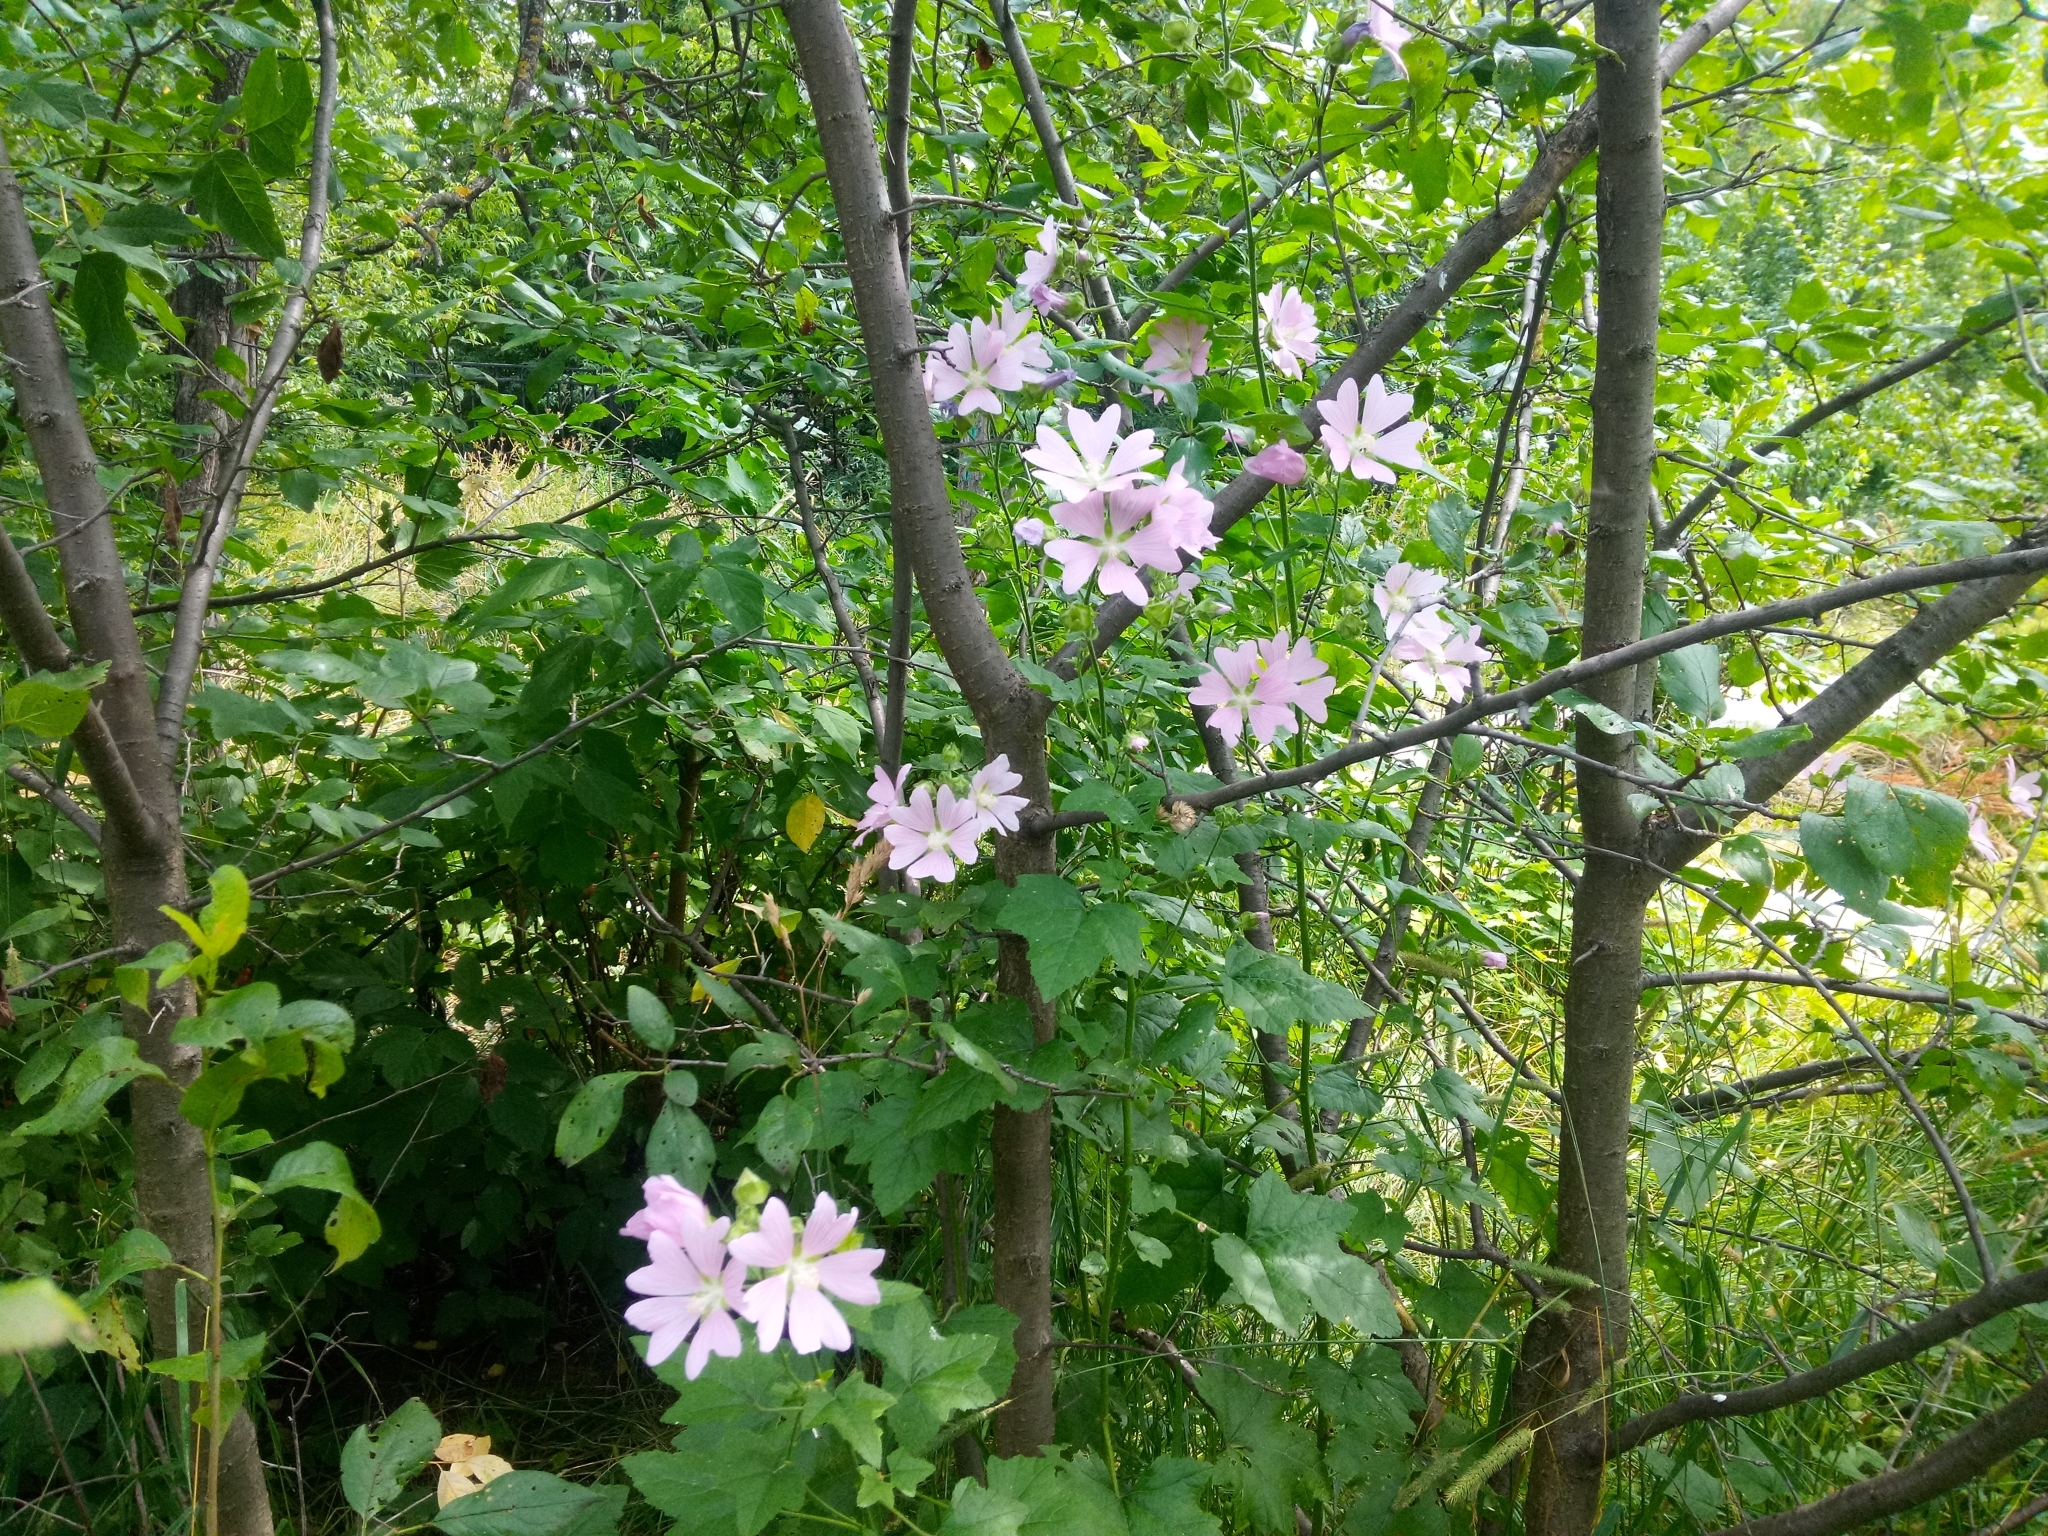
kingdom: Plantae
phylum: Tracheophyta
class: Magnoliopsida
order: Malvales
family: Malvaceae
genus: Malva
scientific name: Malva thuringiaca
